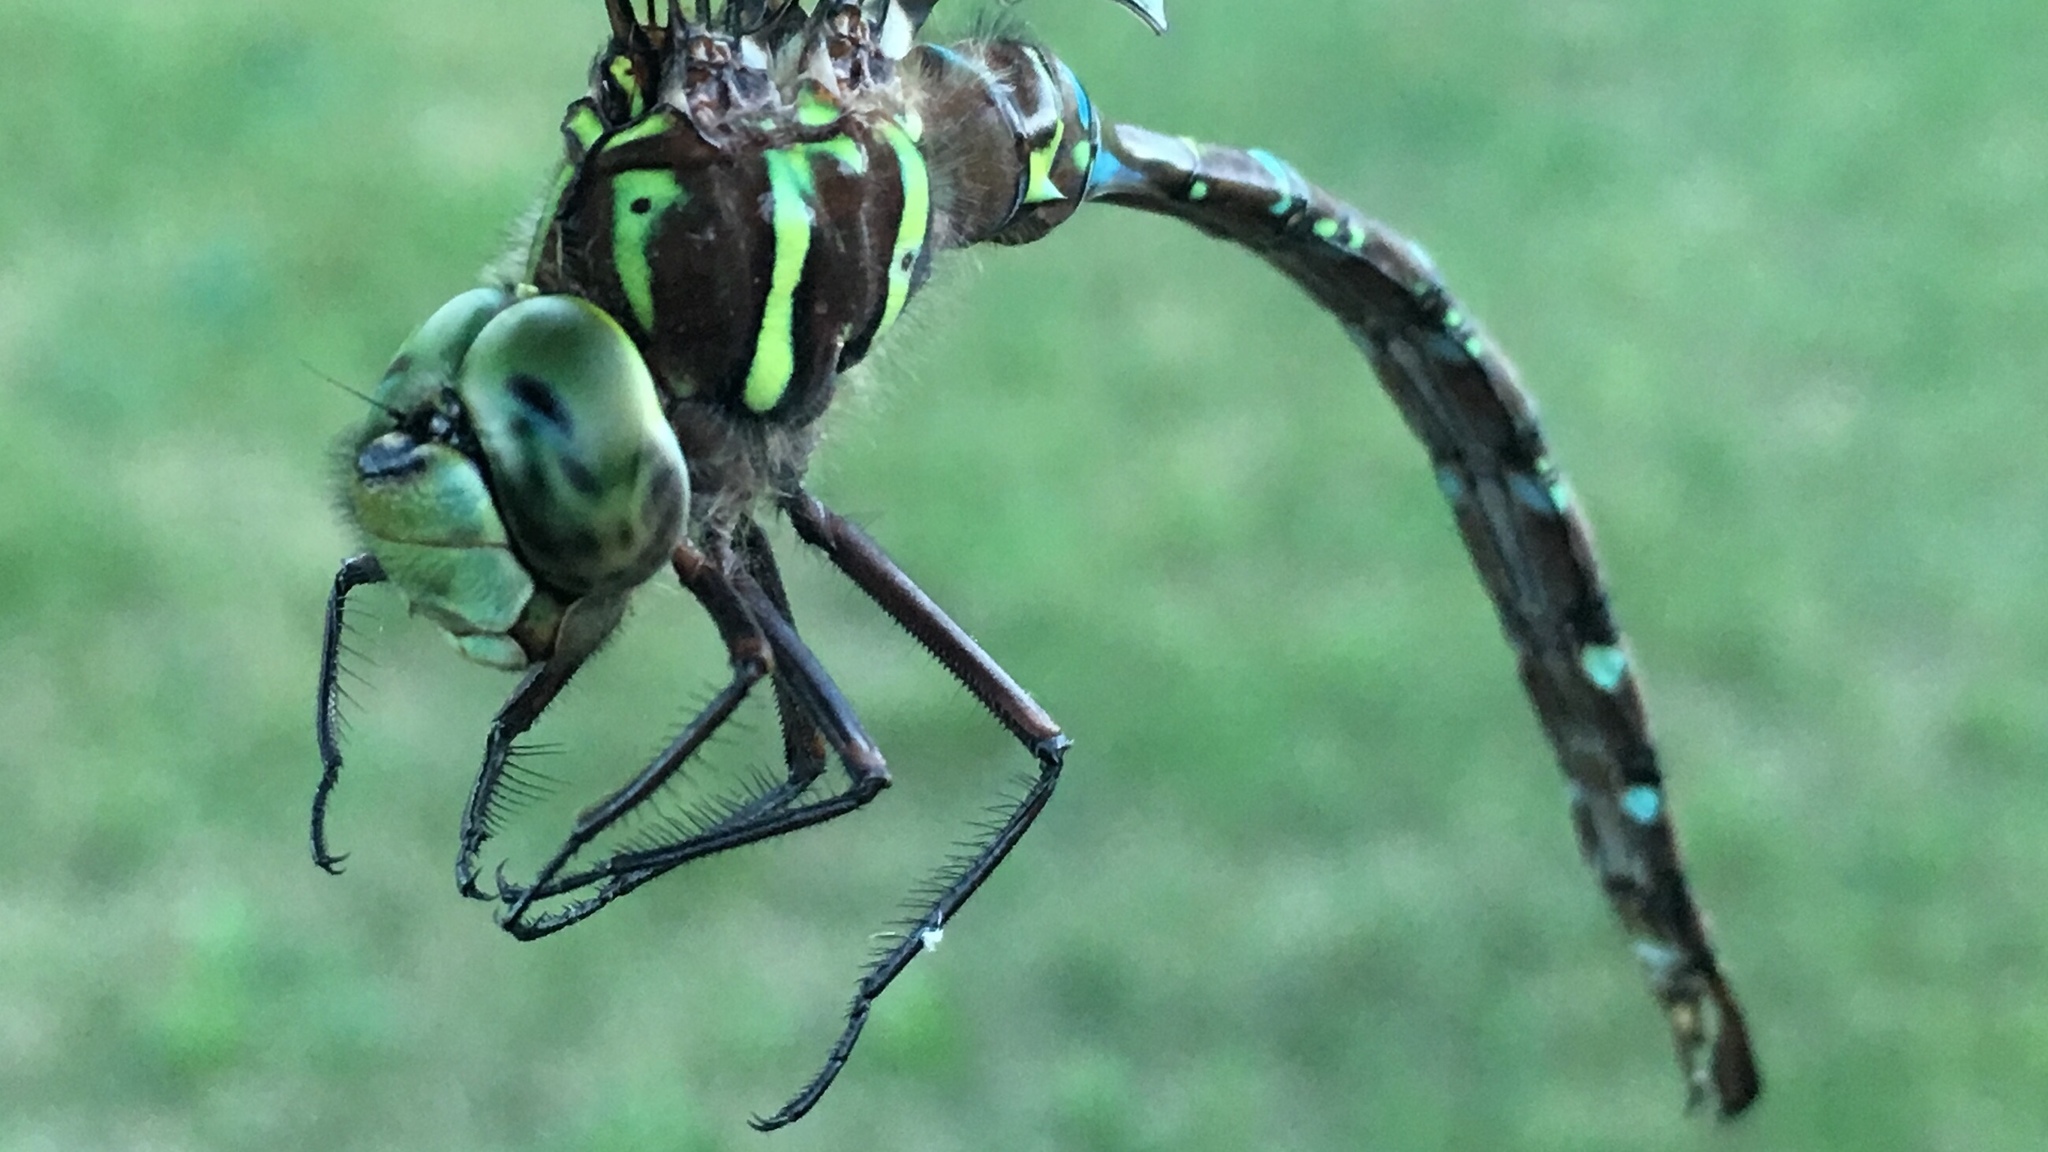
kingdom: Animalia
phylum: Arthropoda
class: Insecta
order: Odonata
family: Aeshnidae
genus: Aeshna
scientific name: Aeshna umbrosa
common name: Shadow darner
